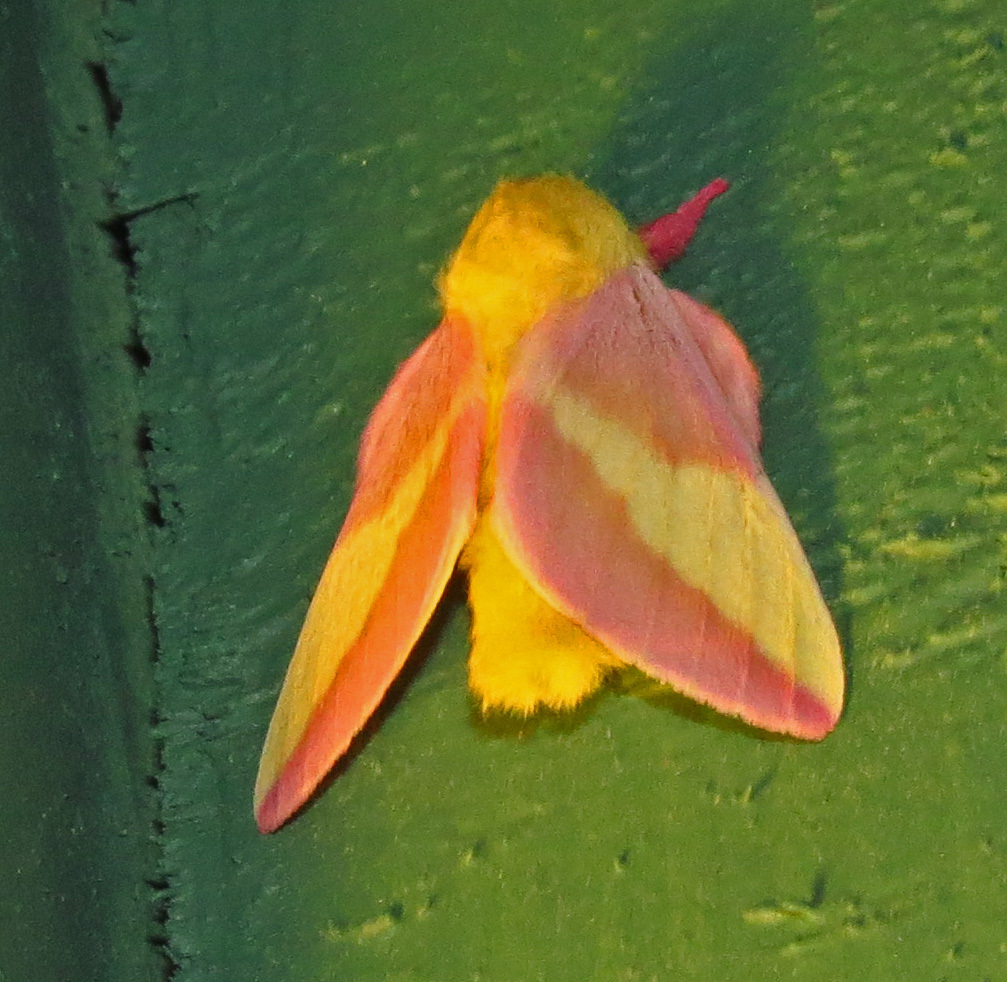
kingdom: Animalia
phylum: Arthropoda
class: Insecta
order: Lepidoptera
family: Saturniidae
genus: Dryocampa
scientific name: Dryocampa rubicunda
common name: Rosy maple moth
